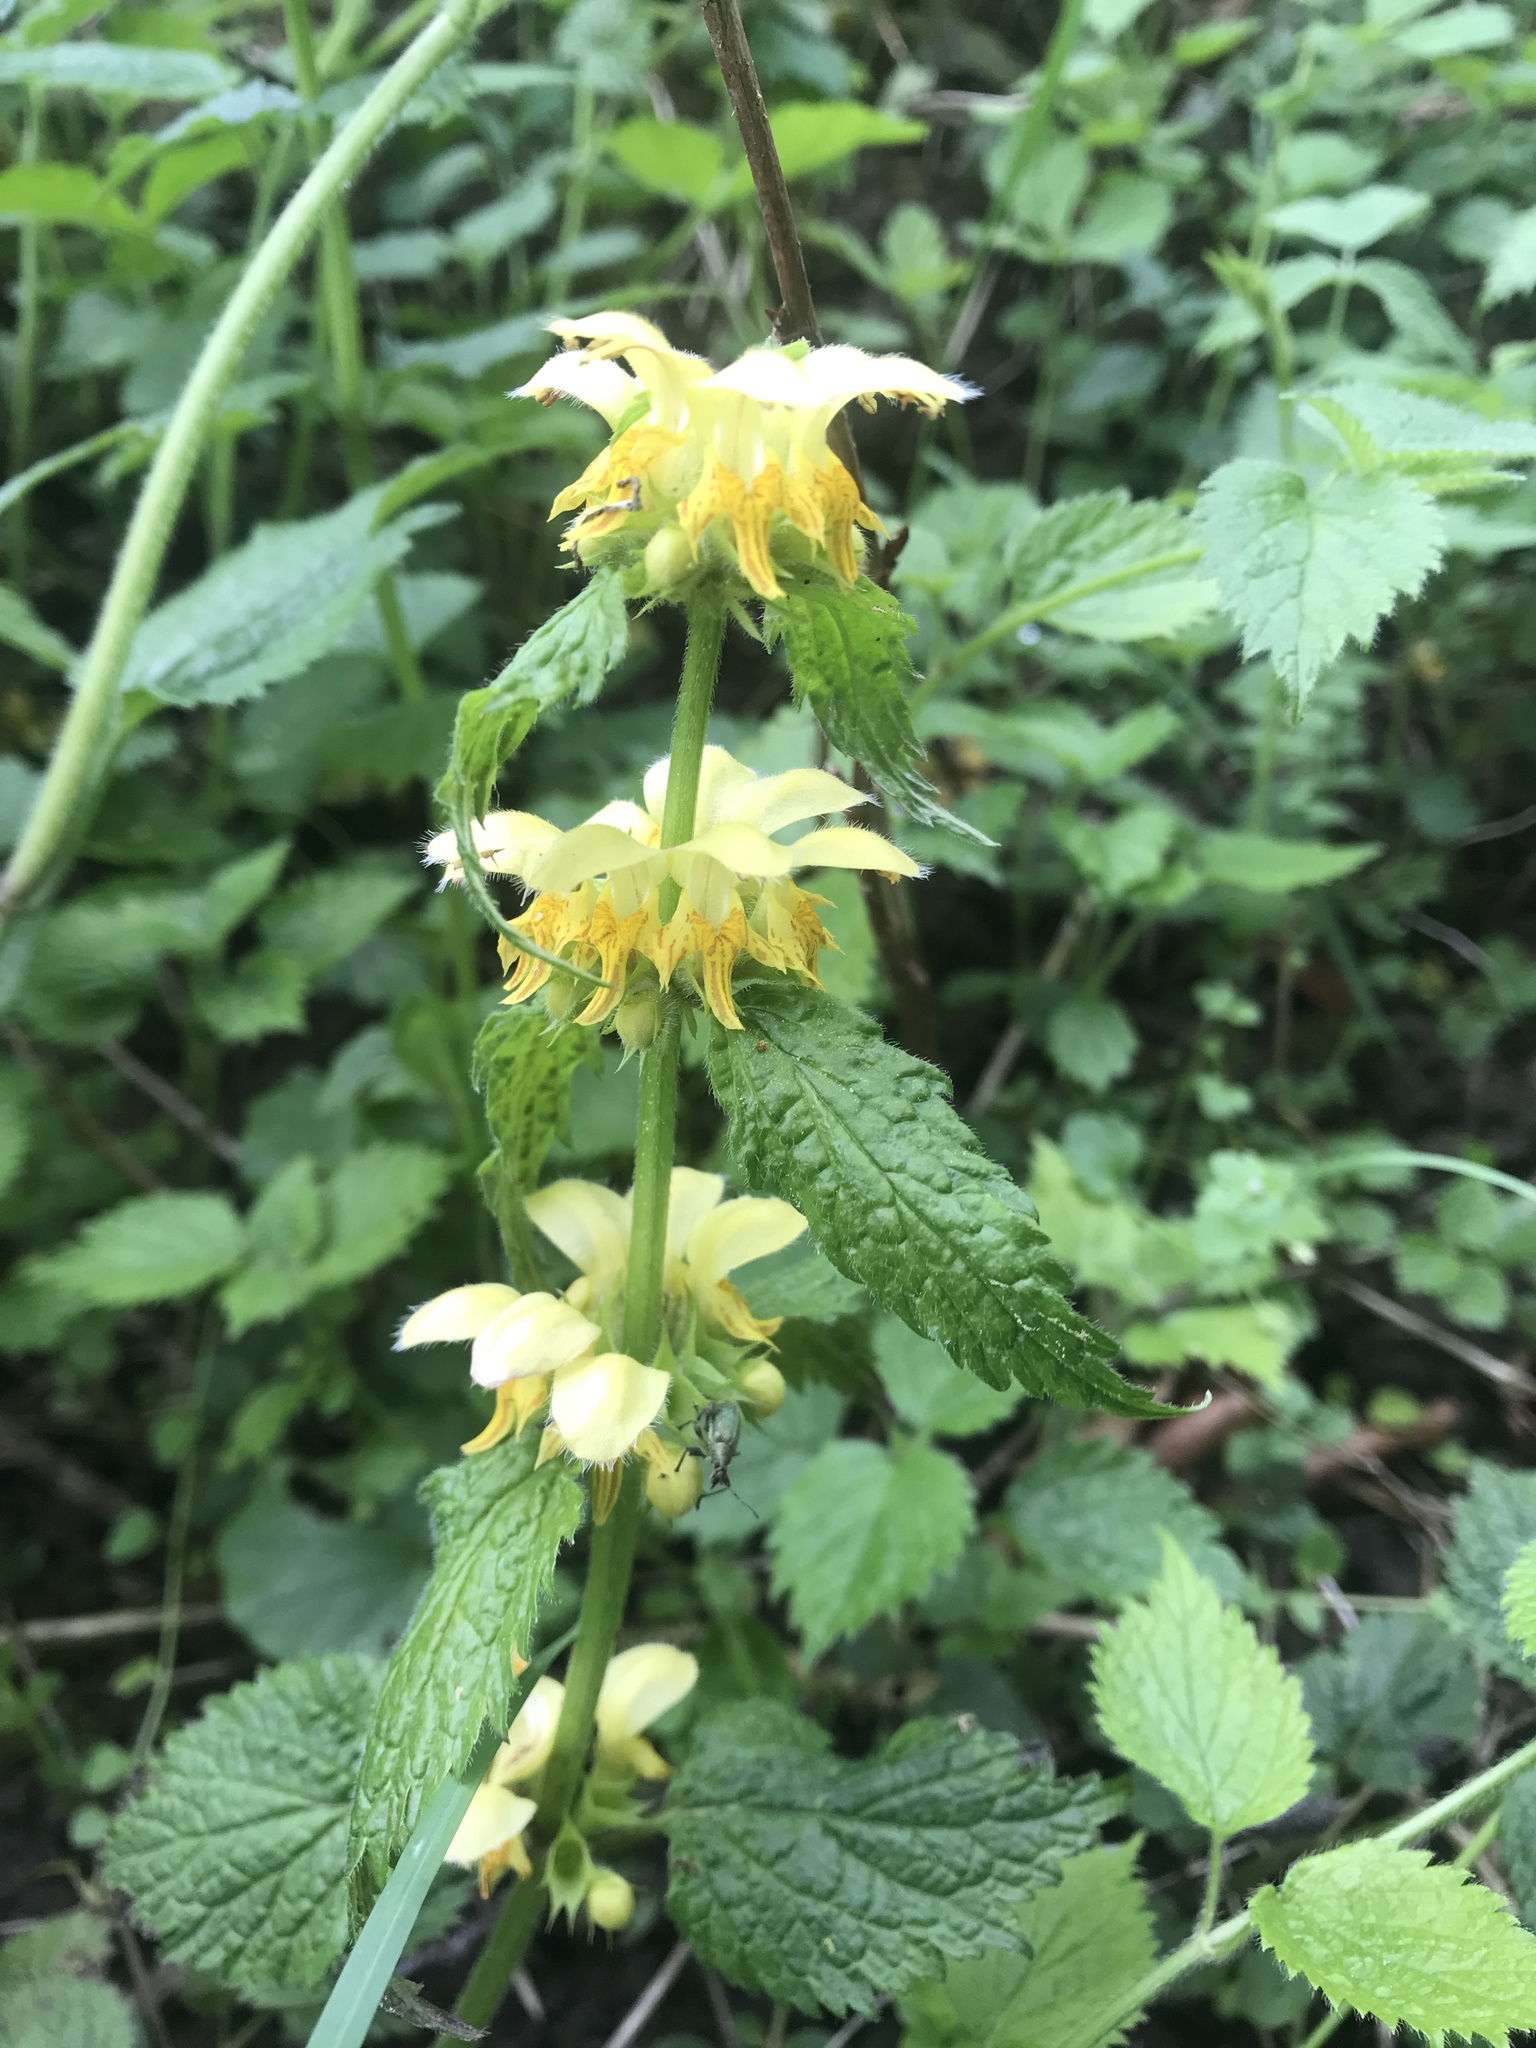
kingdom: Plantae
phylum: Tracheophyta
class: Magnoliopsida
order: Lamiales
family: Lamiaceae
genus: Lamium
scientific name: Lamium galeobdolon
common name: Yellow archangel
